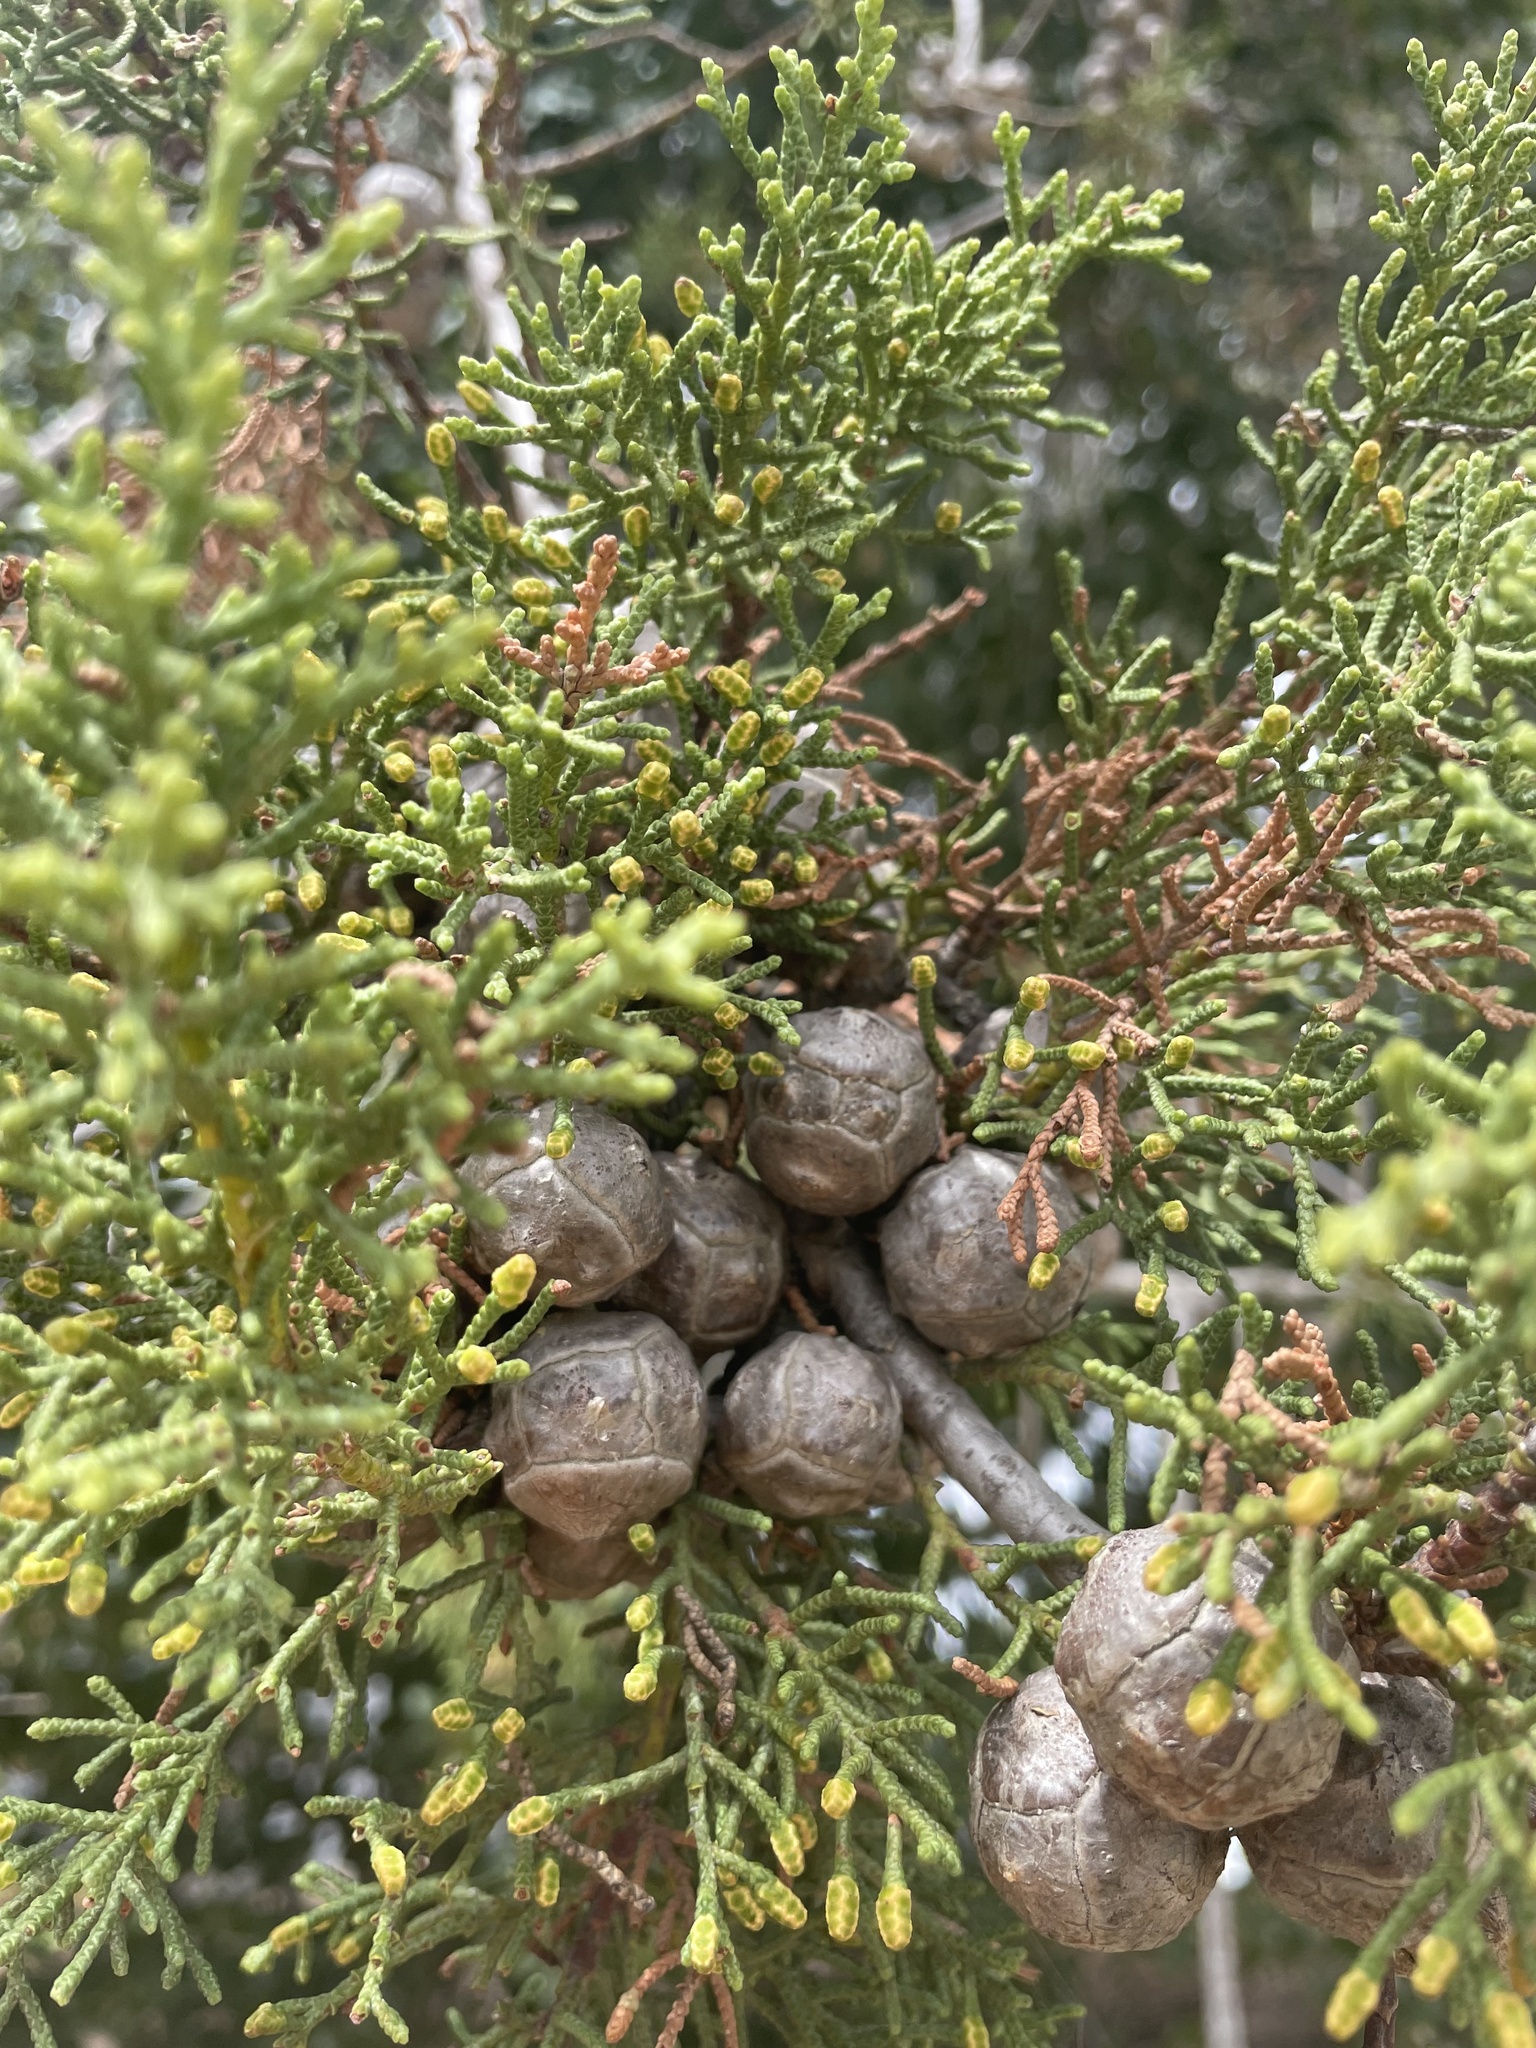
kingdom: Plantae
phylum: Tracheophyta
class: Pinopsida
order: Pinales
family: Cupressaceae
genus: Cupressus
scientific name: Cupressus goveniana
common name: Gowen cypress
